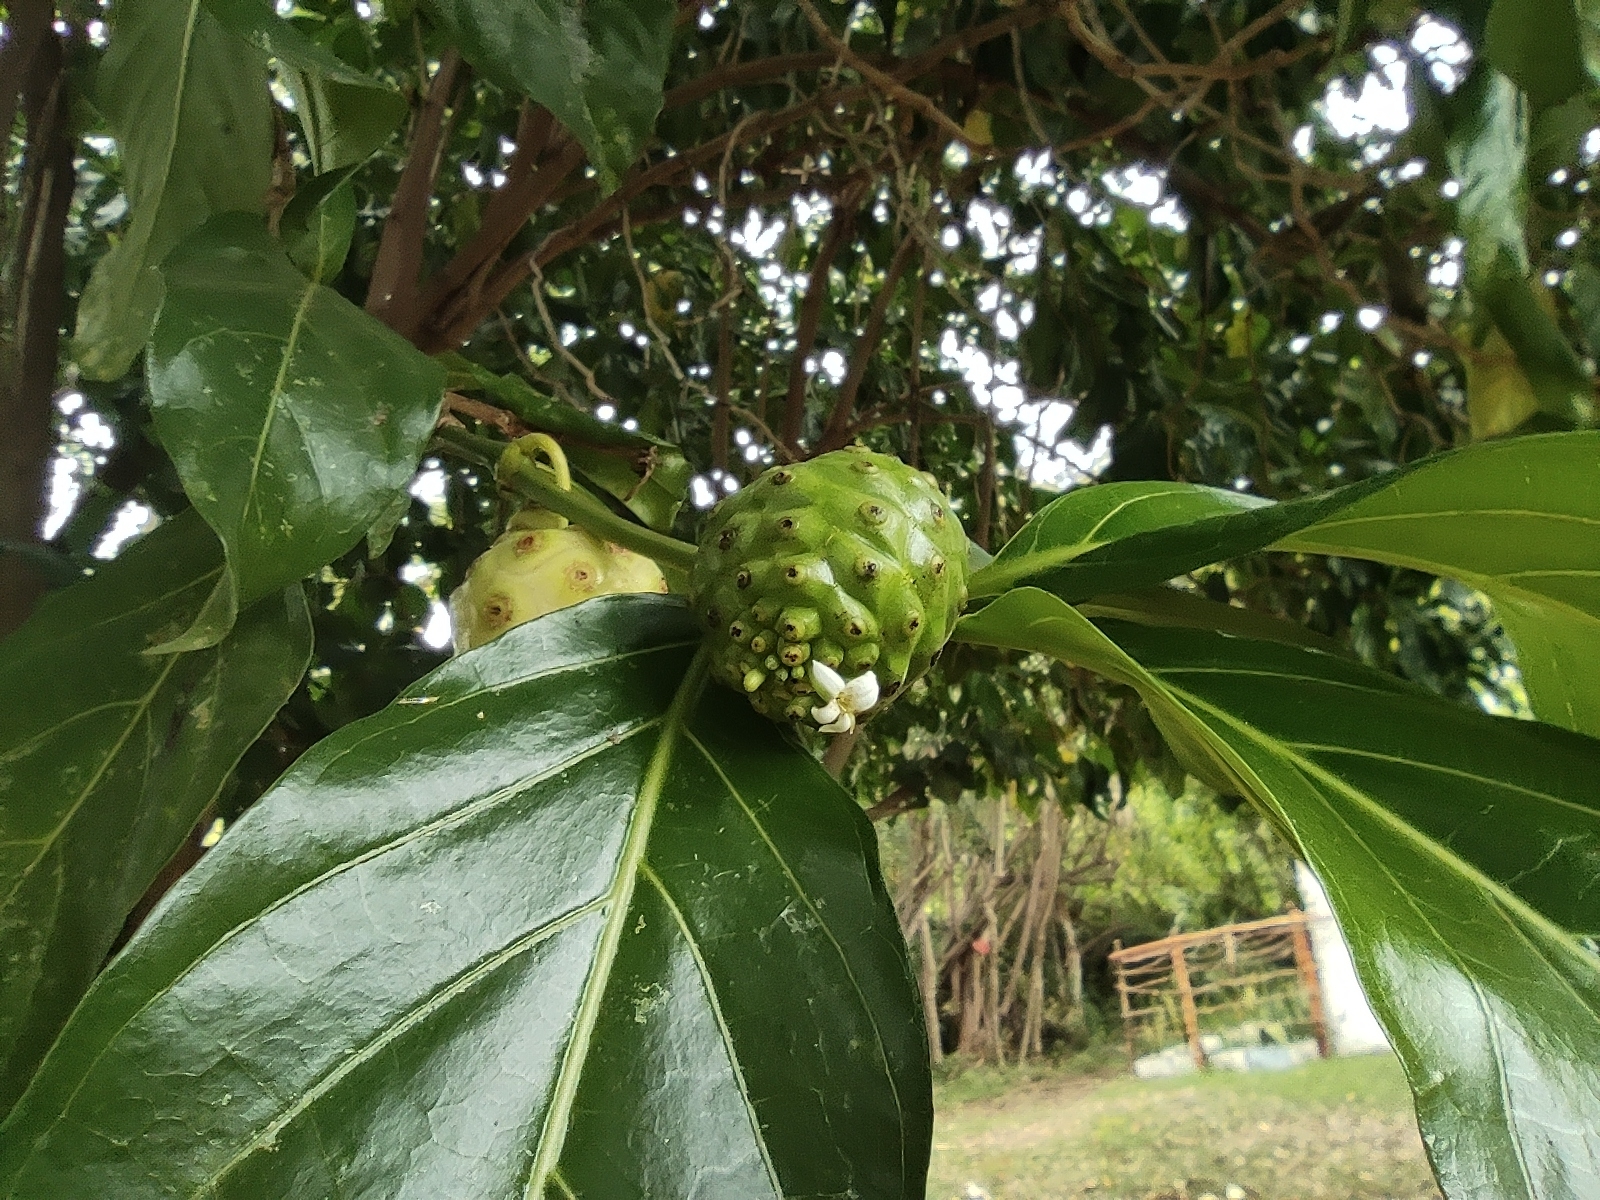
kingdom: Plantae
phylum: Tracheophyta
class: Magnoliopsida
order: Gentianales
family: Rubiaceae
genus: Morinda
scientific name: Morinda citrifolia
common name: Indian-mulberry
